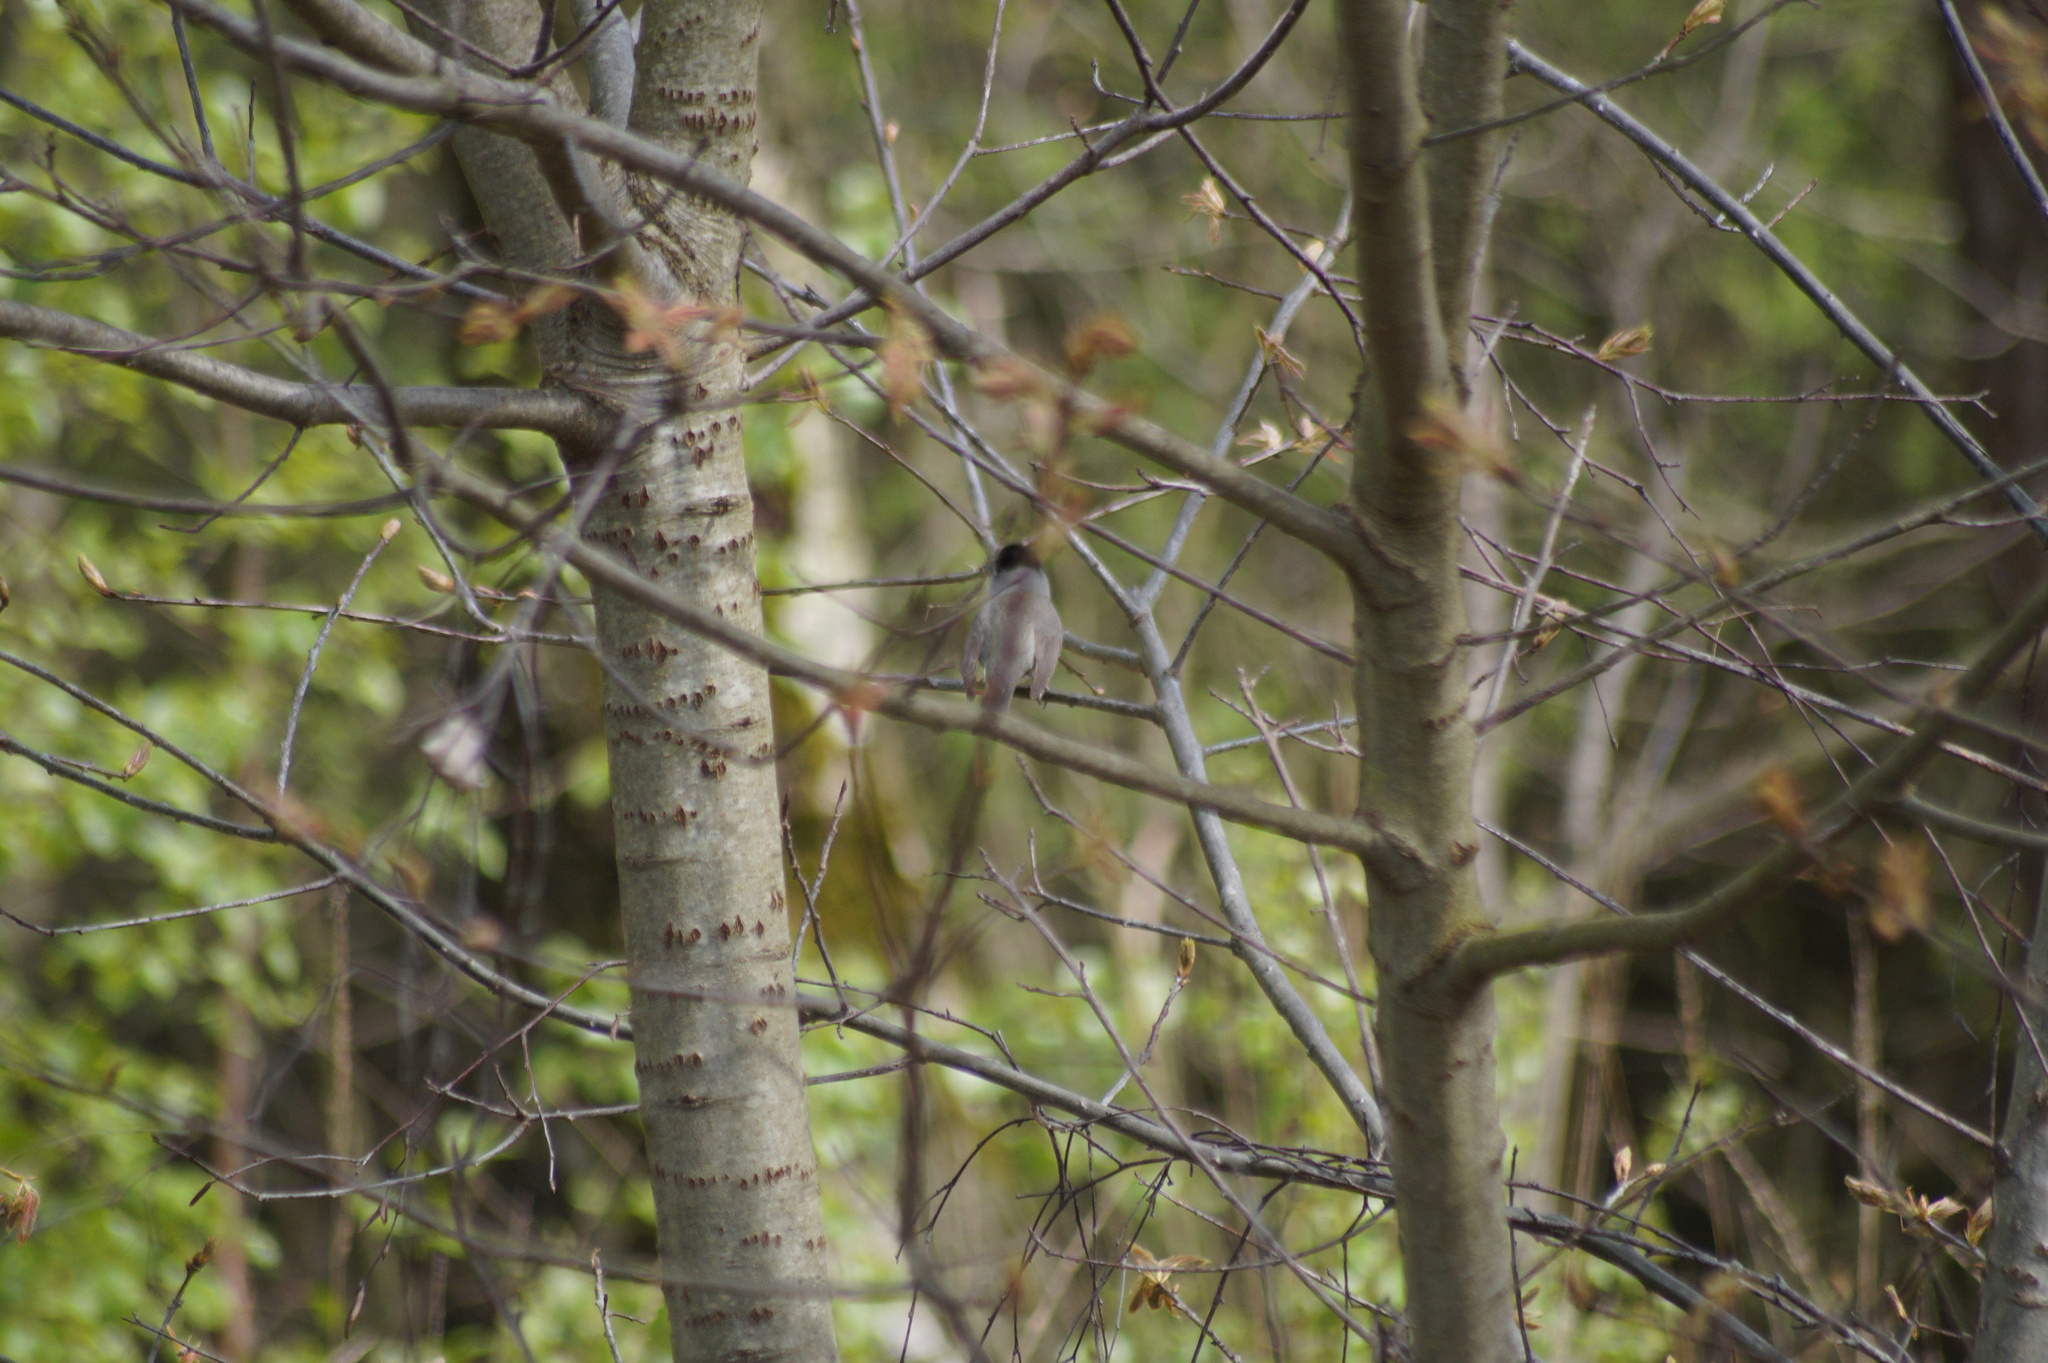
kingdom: Animalia
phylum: Chordata
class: Aves
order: Passeriformes
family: Sylviidae
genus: Sylvia
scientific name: Sylvia atricapilla
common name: Eurasian blackcap
